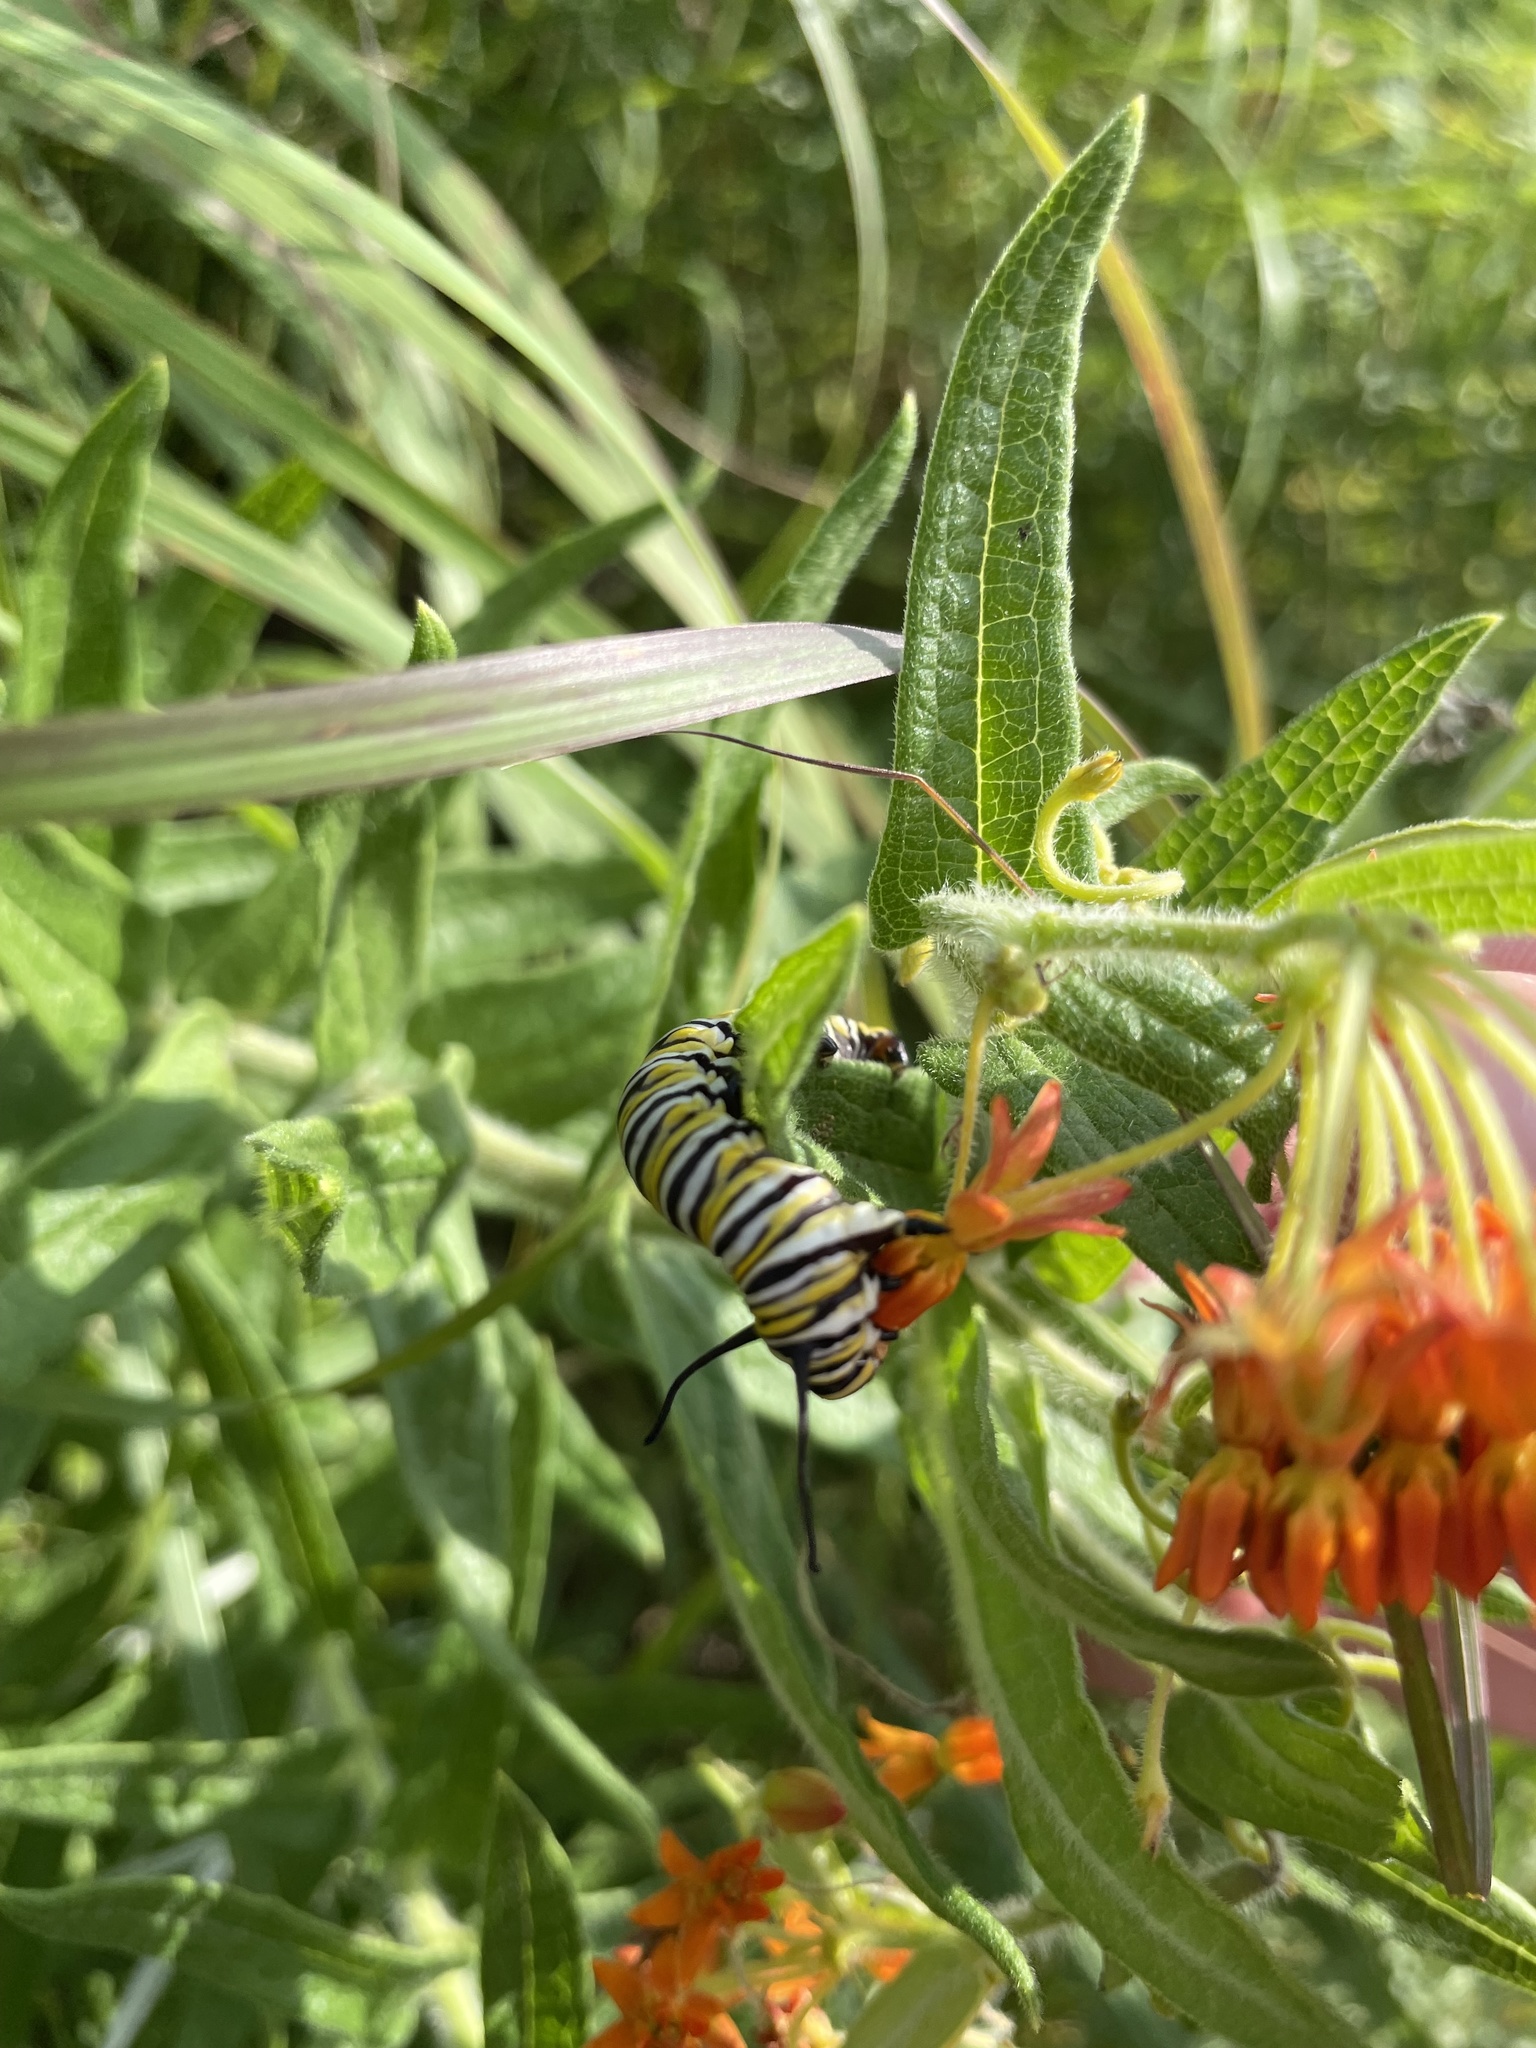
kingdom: Animalia
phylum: Arthropoda
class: Insecta
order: Lepidoptera
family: Nymphalidae
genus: Danaus
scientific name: Danaus plexippus
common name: Monarch
